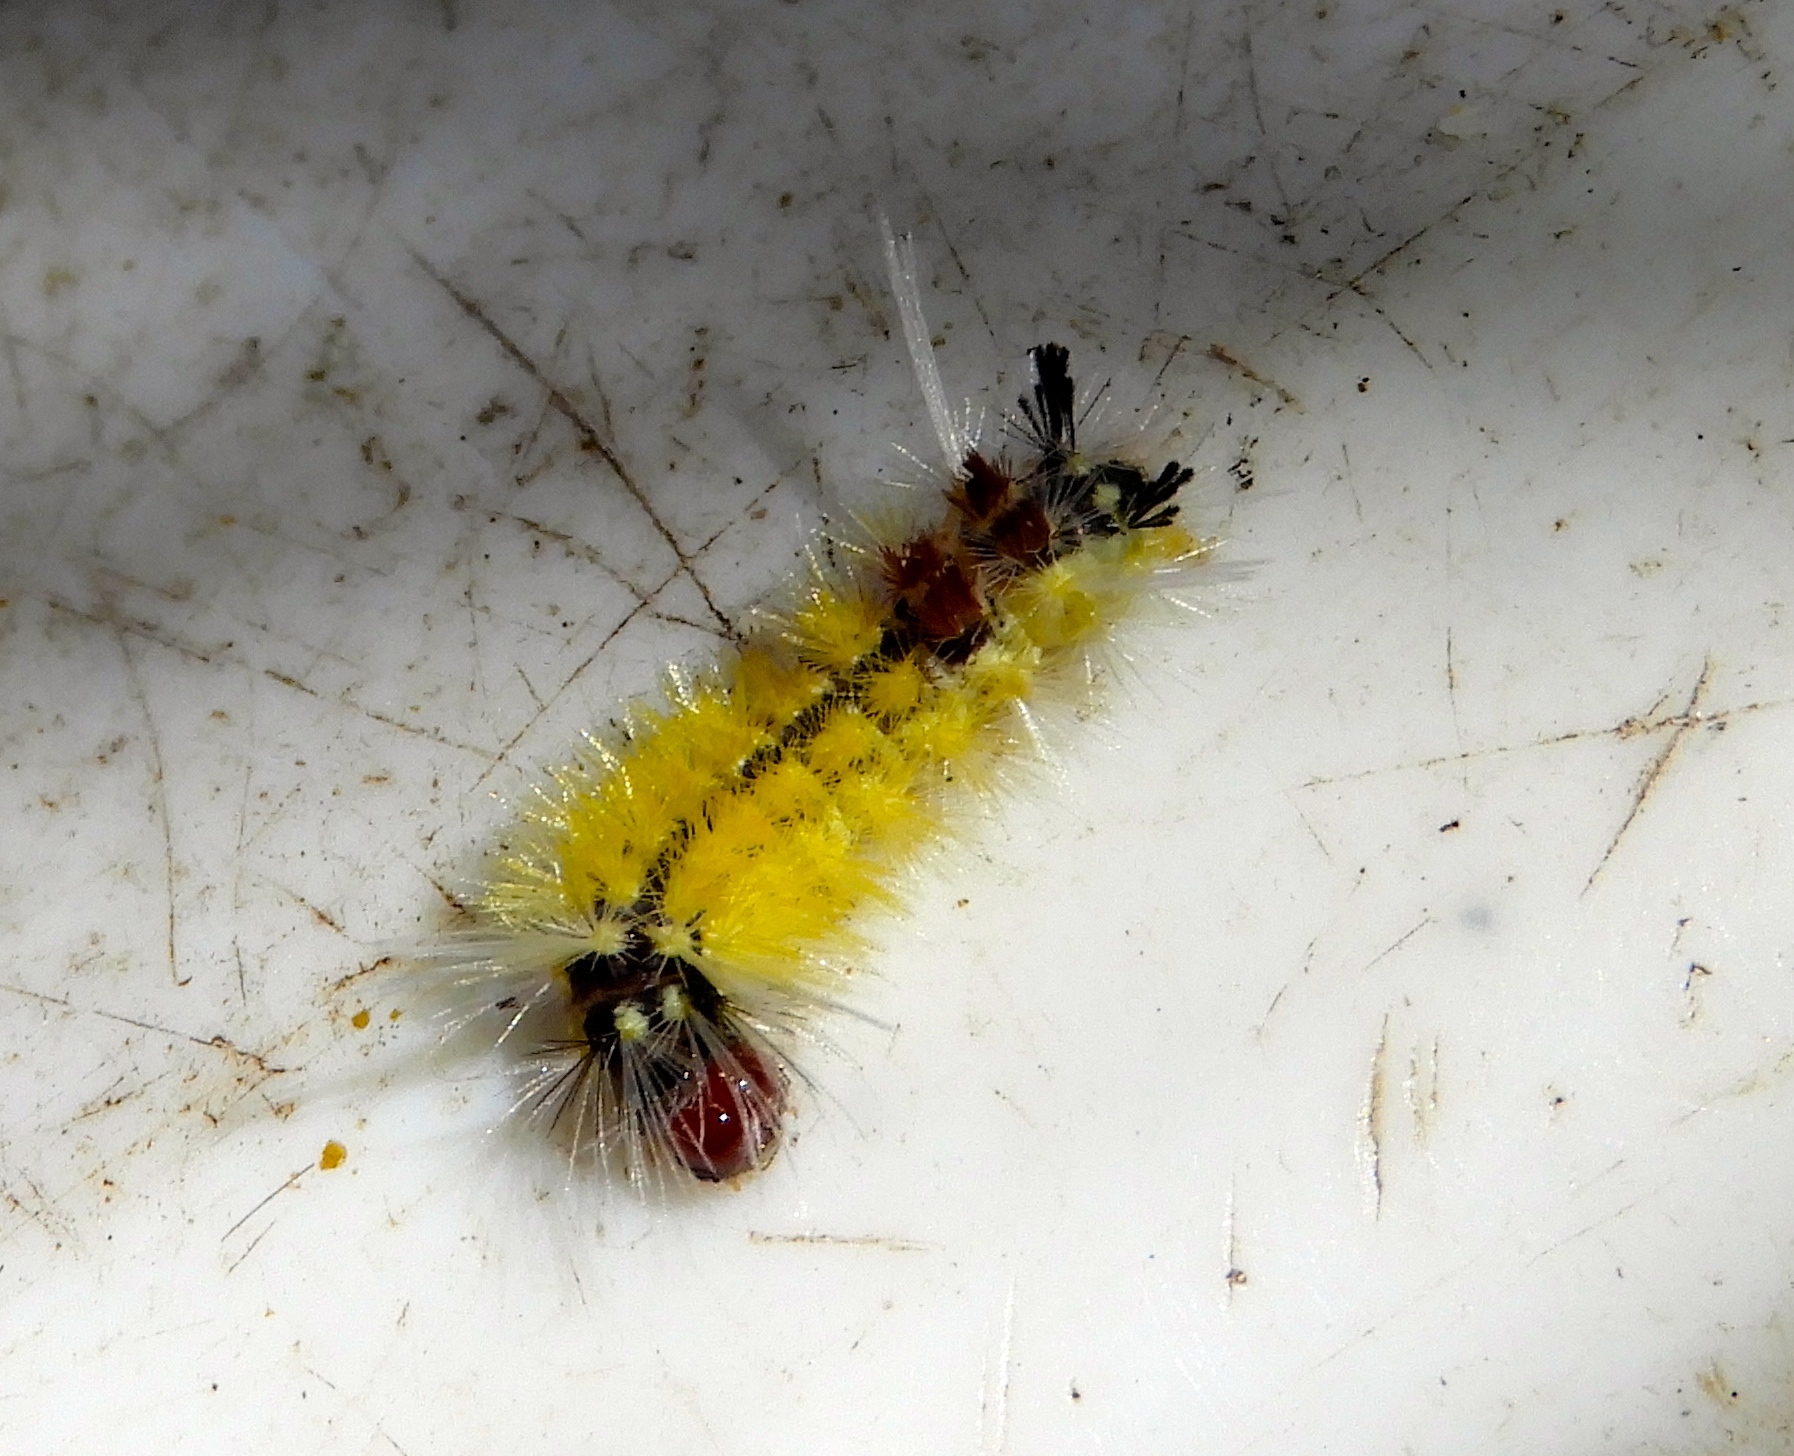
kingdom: Animalia
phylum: Arthropoda
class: Insecta
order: Lepidoptera
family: Erebidae
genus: Lophocampa
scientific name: Lophocampa annulosa
